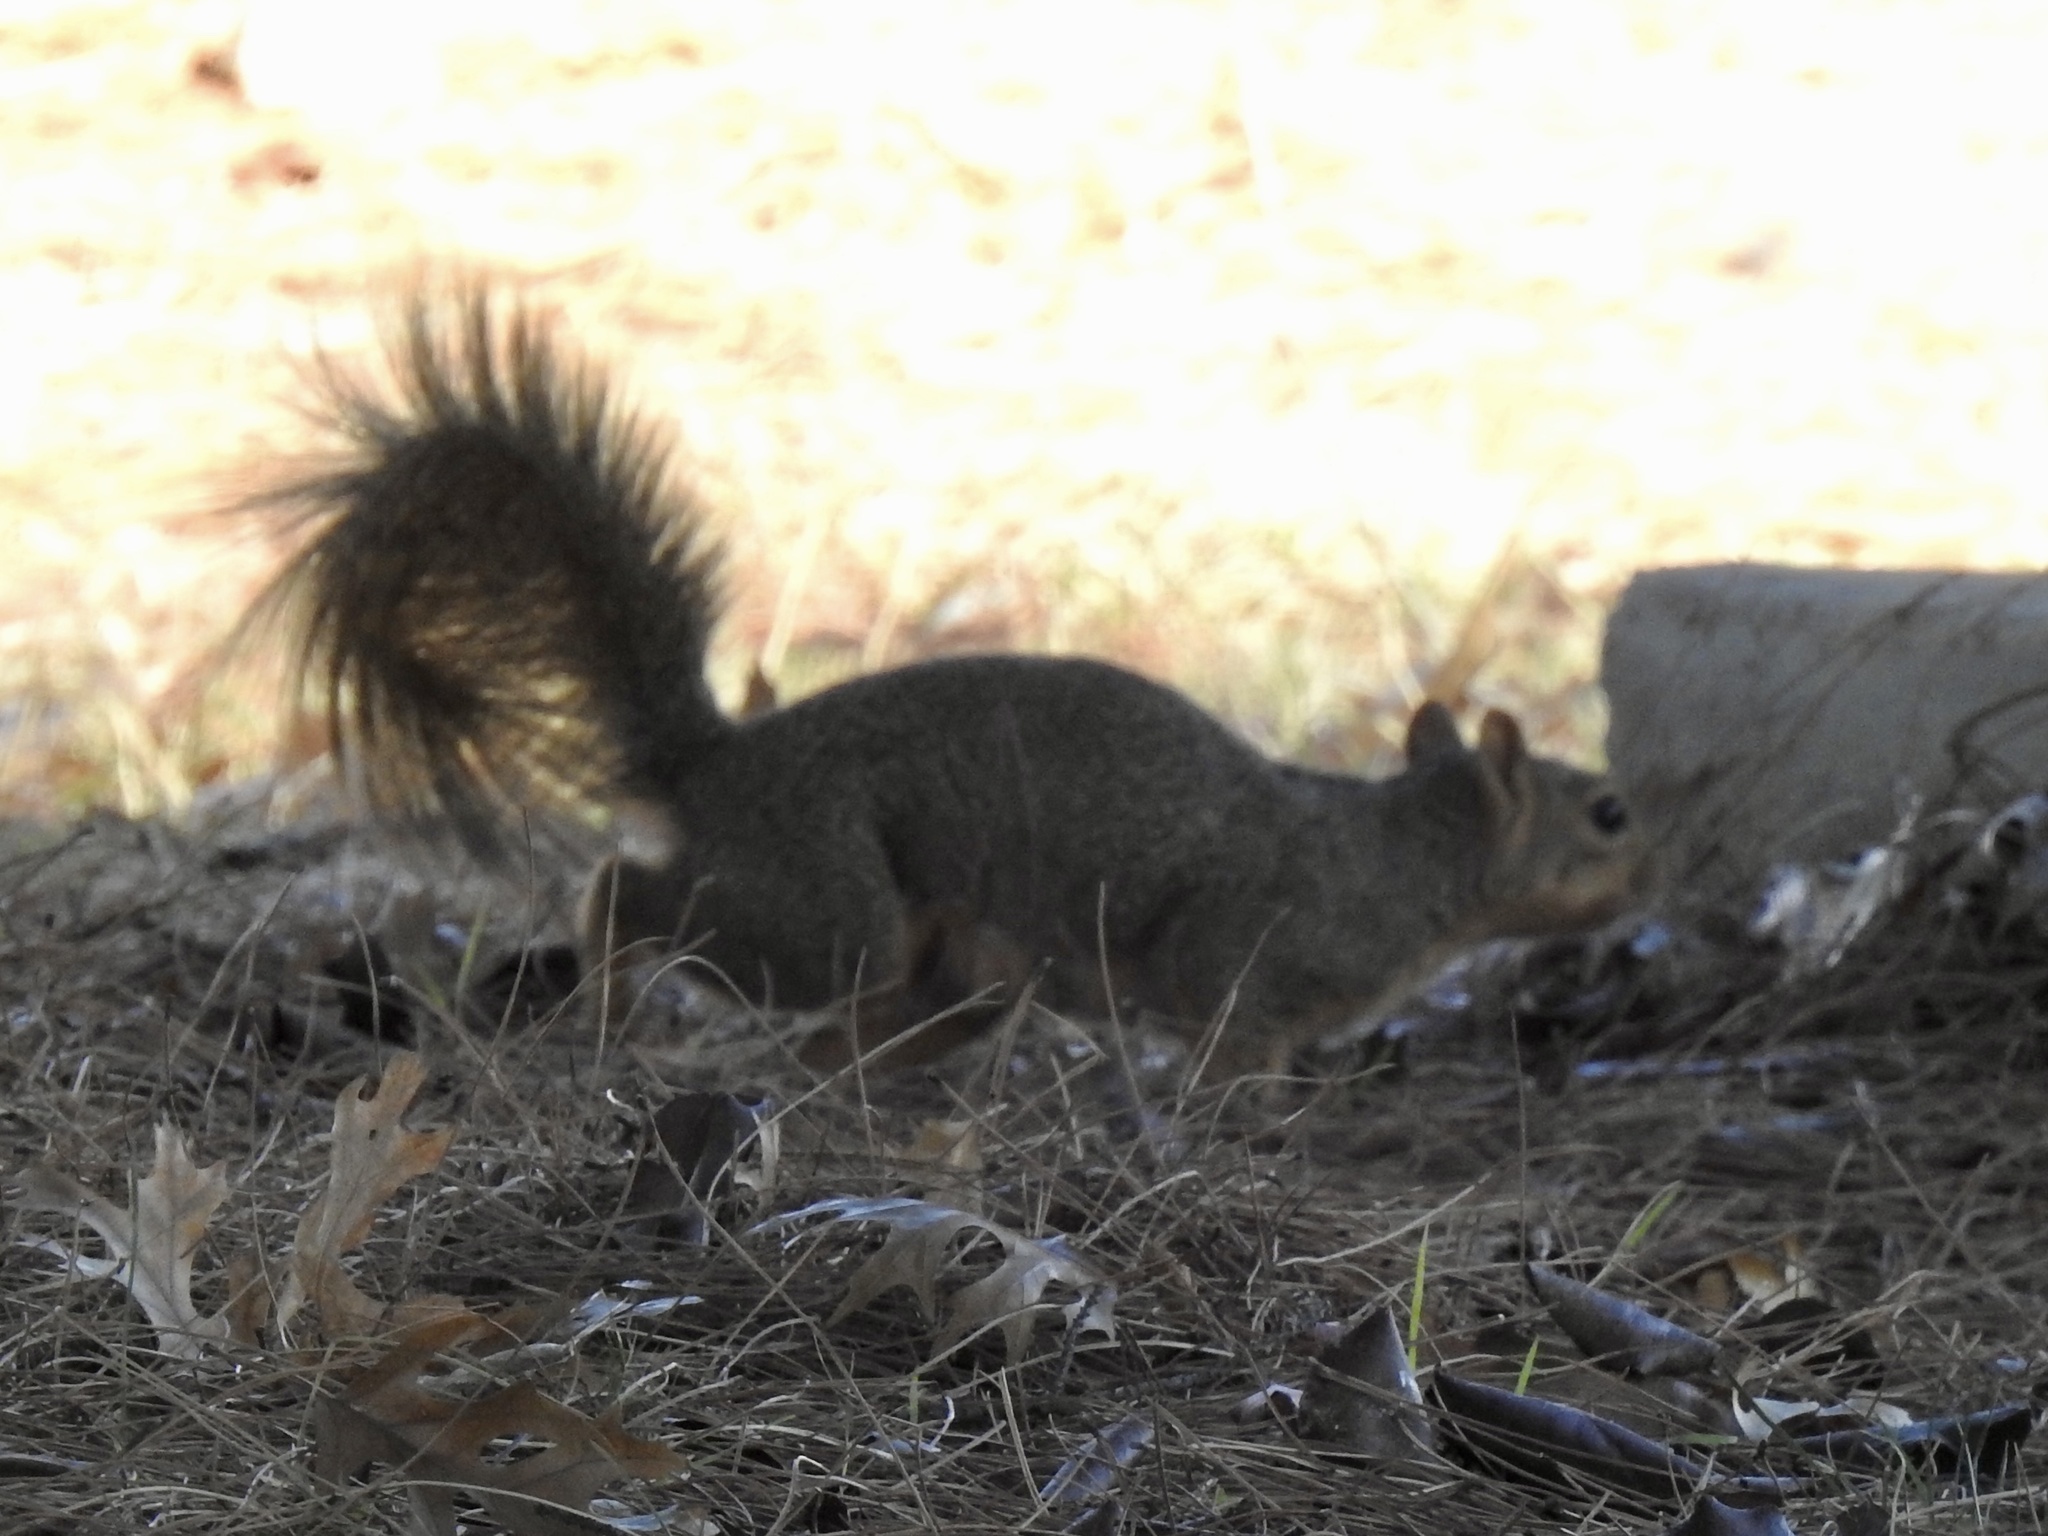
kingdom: Animalia
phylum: Chordata
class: Mammalia
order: Rodentia
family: Sciuridae
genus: Sciurus
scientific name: Sciurus niger
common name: Fox squirrel
